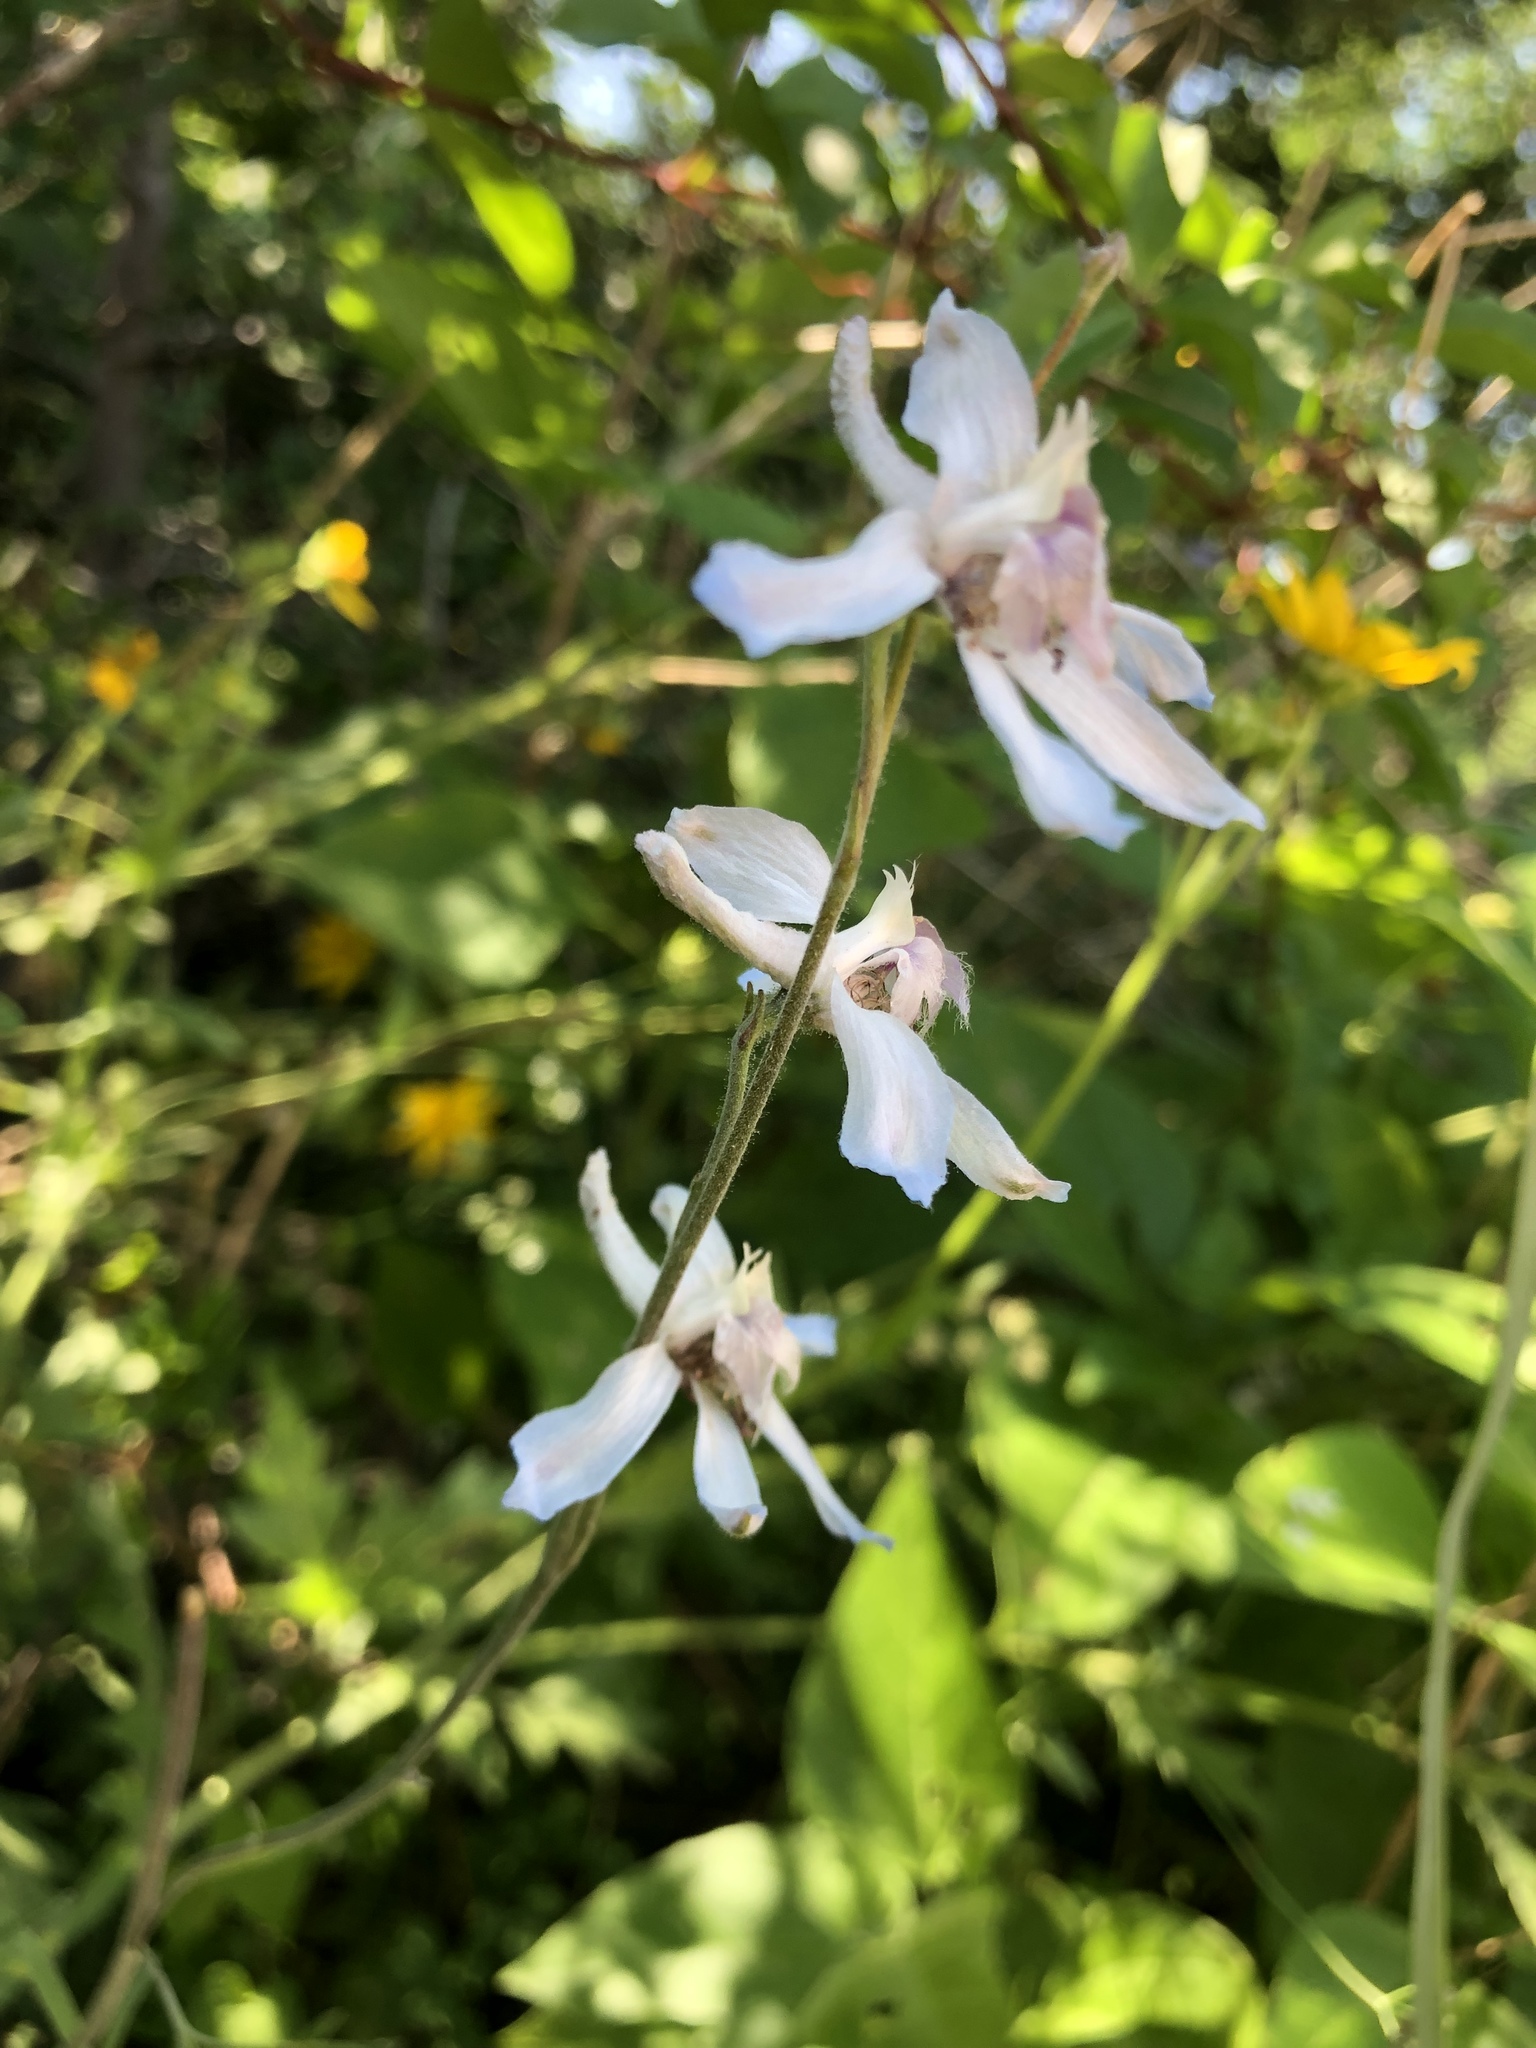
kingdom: Plantae
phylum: Tracheophyta
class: Magnoliopsida
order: Ranunculales
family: Ranunculaceae
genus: Delphinium
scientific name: Delphinium carolinianum
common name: Carolina larkspur
